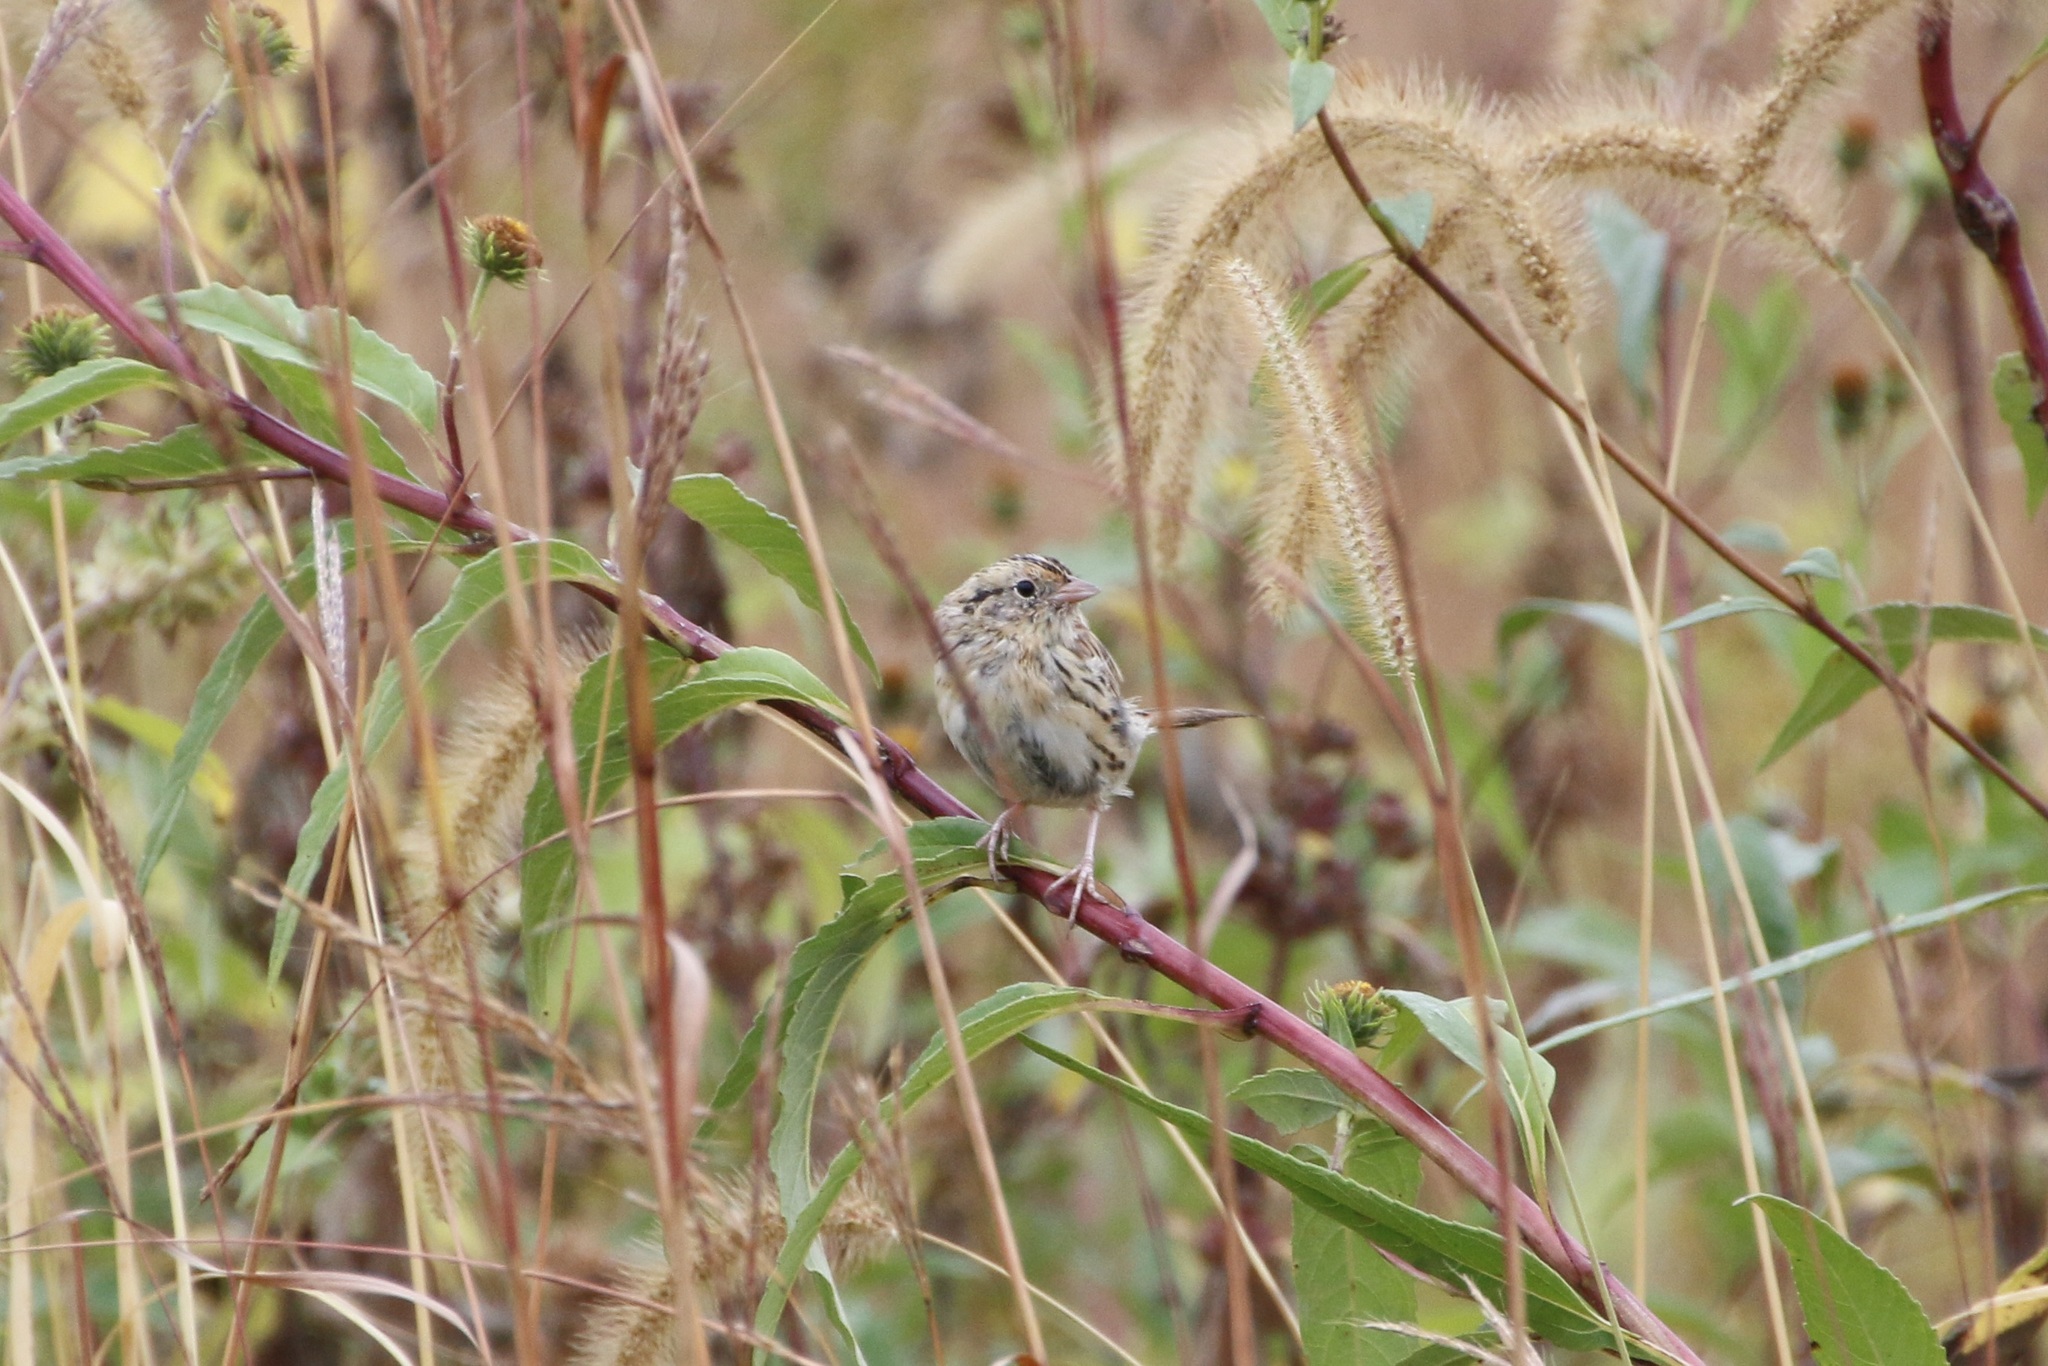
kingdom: Animalia
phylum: Chordata
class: Aves
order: Passeriformes
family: Passerellidae
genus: Ammospiza
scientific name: Ammospiza leconteii
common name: Le conte's sparrow
